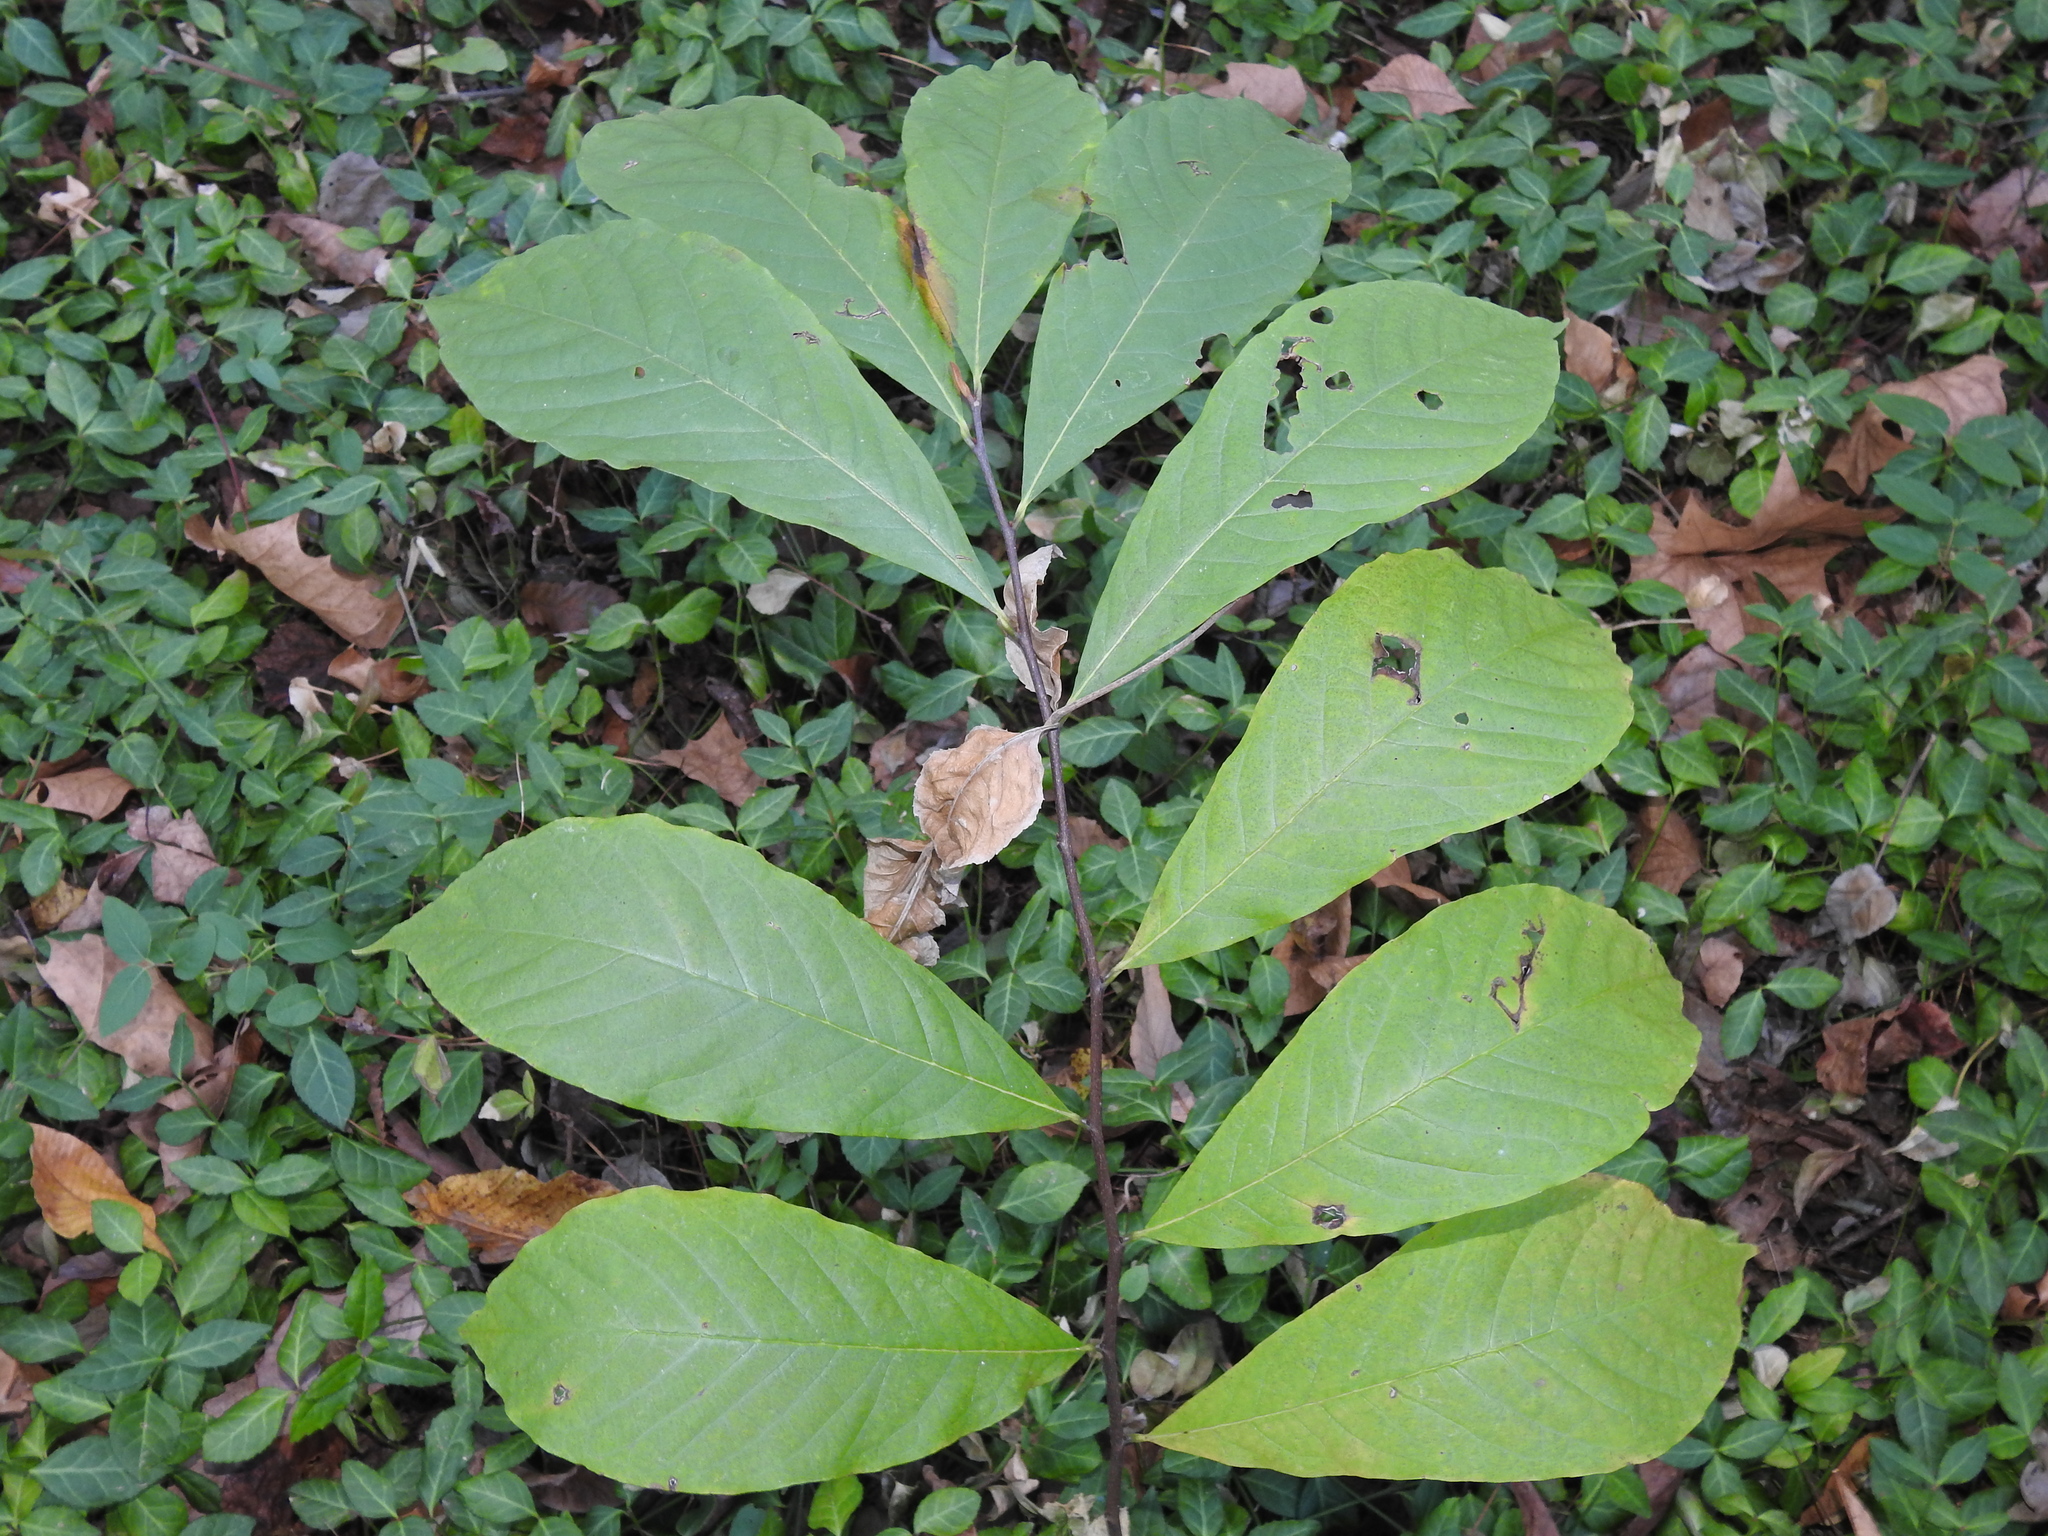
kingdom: Plantae
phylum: Tracheophyta
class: Magnoliopsida
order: Magnoliales
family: Annonaceae
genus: Asimina
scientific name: Asimina triloba
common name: Dog-banana
